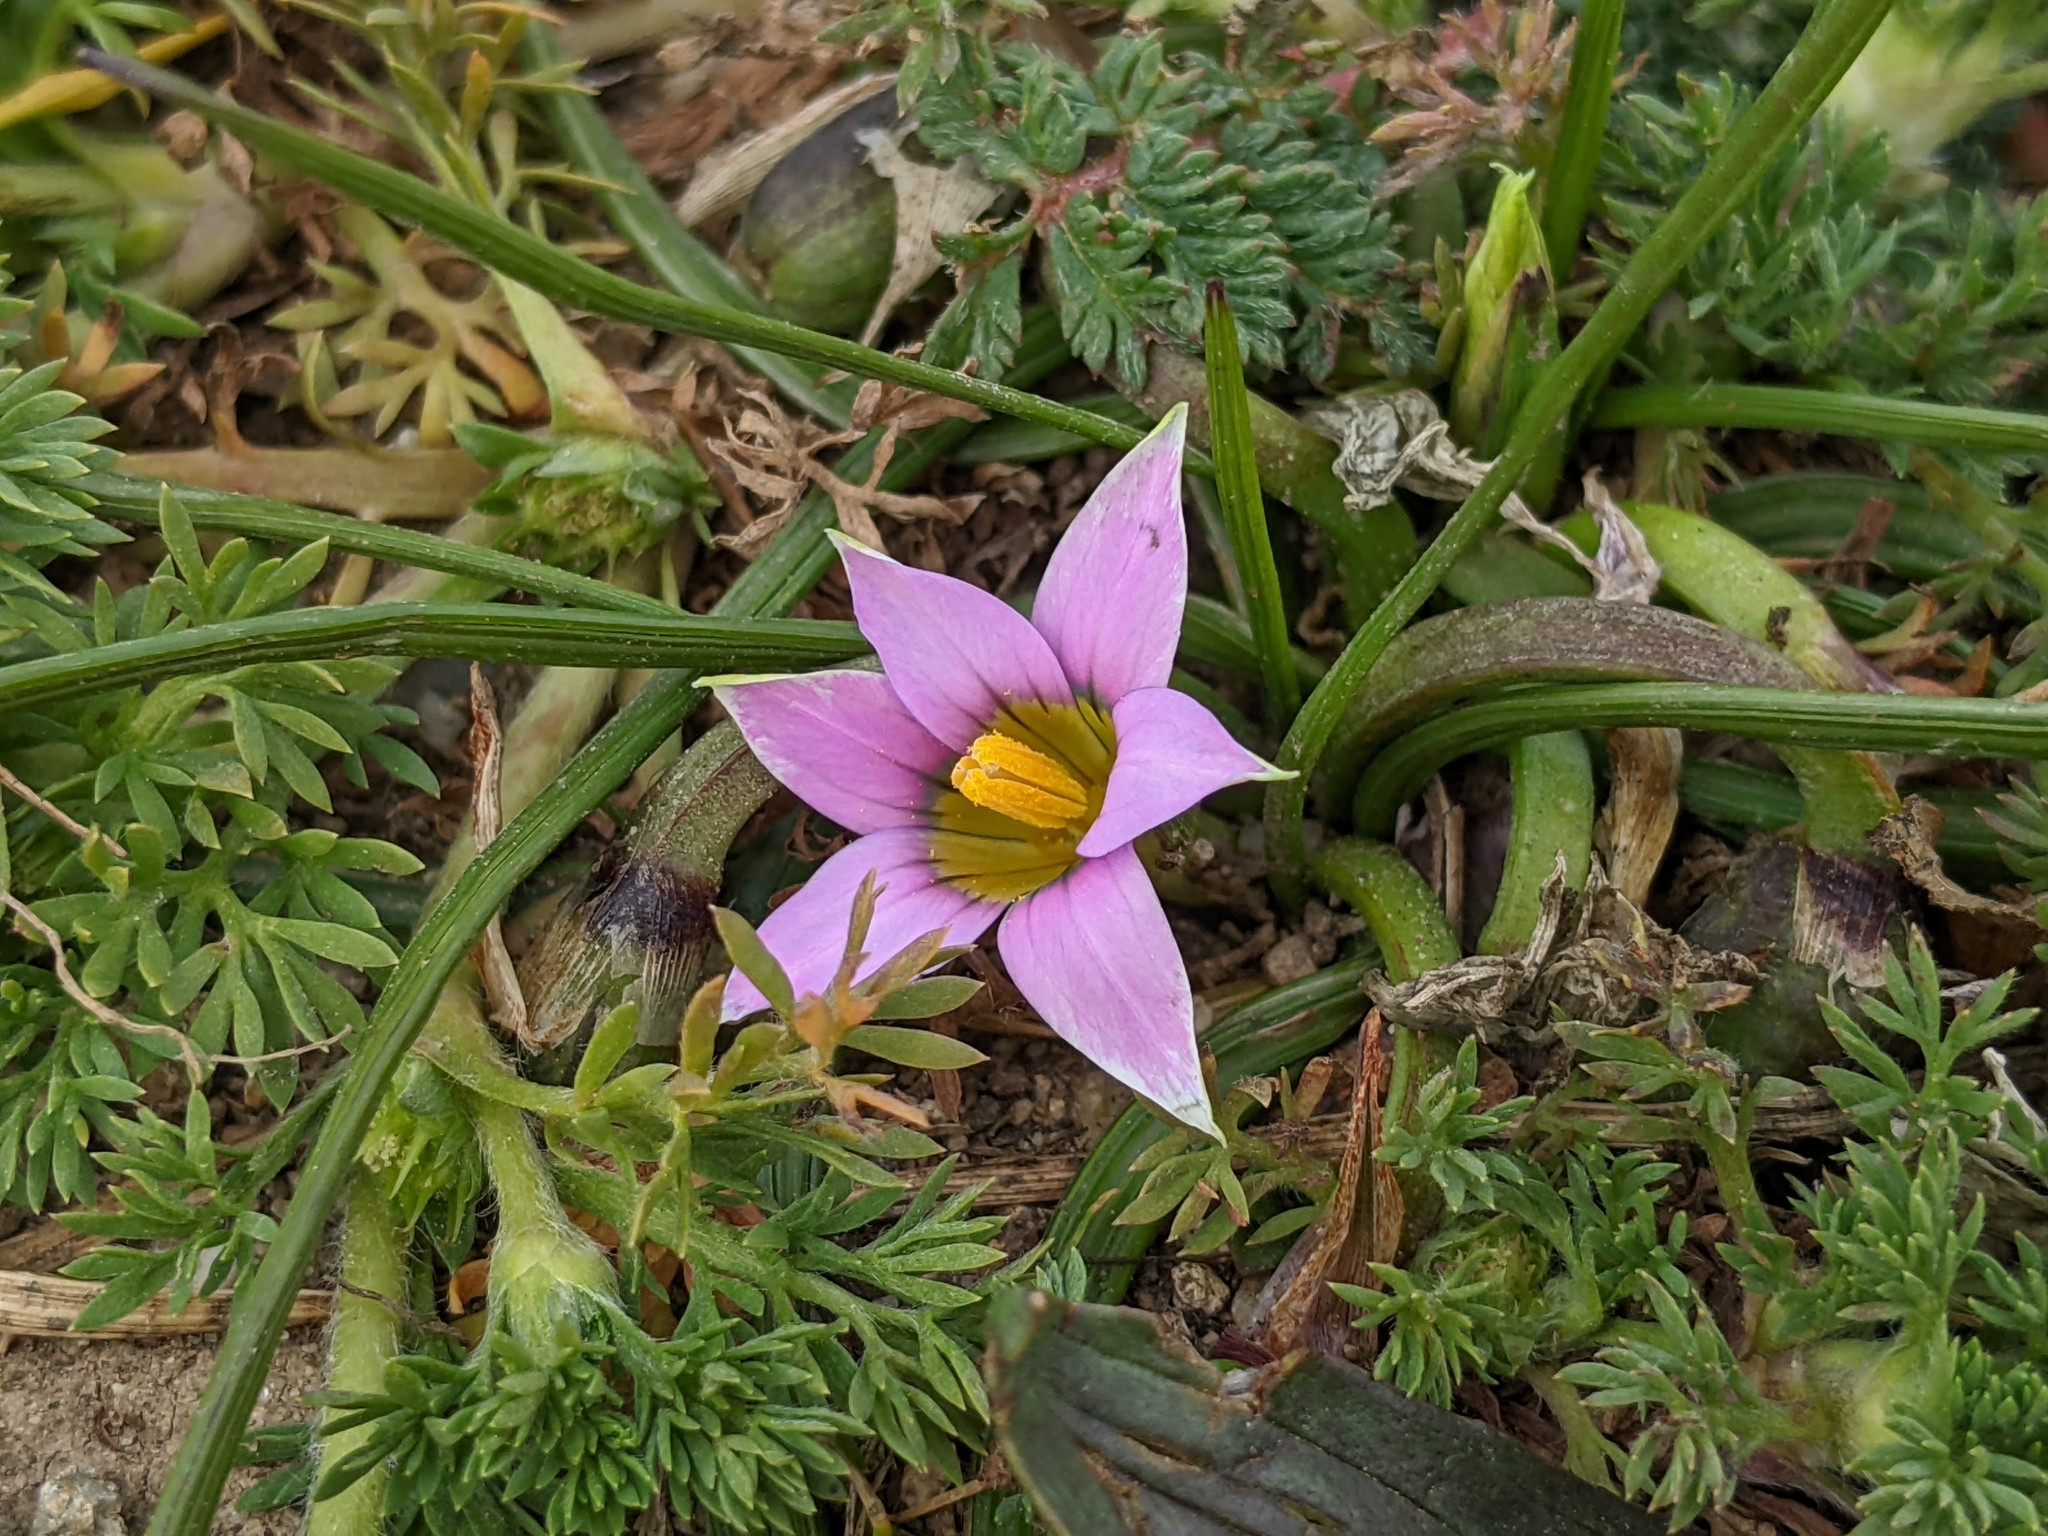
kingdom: Plantae
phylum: Tracheophyta
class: Liliopsida
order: Asparagales
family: Iridaceae
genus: Romulea
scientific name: Romulea rosea
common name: Oniongrass
